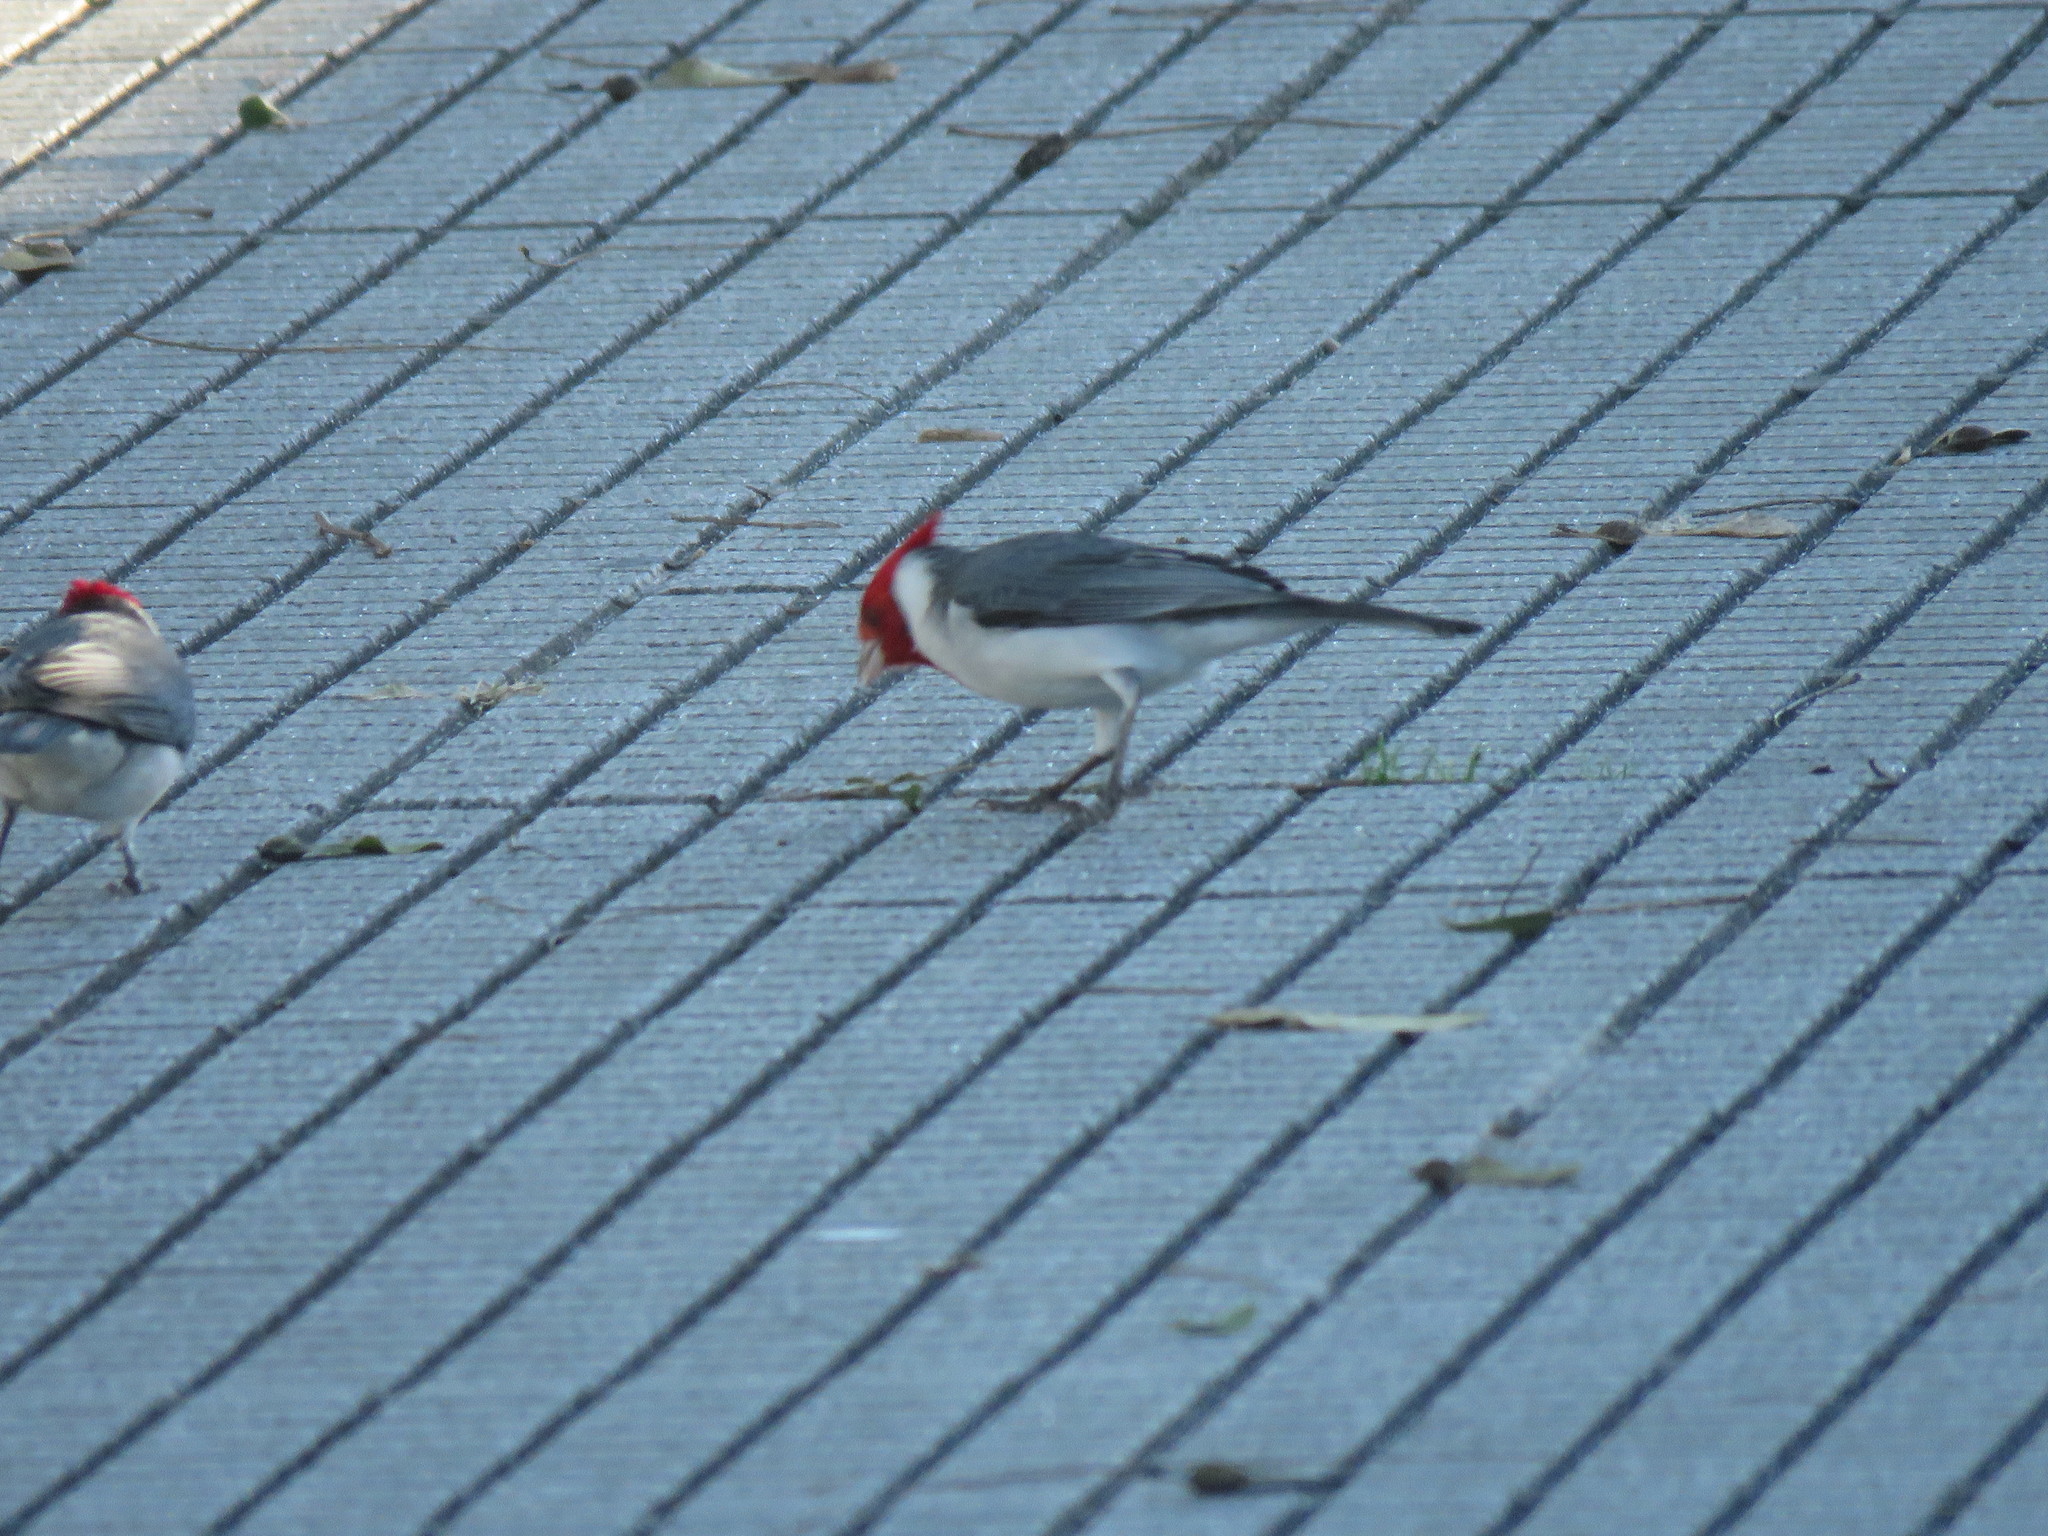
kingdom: Animalia
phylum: Chordata
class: Aves
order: Passeriformes
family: Thraupidae
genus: Paroaria
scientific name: Paroaria coronata
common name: Red-crested cardinal
